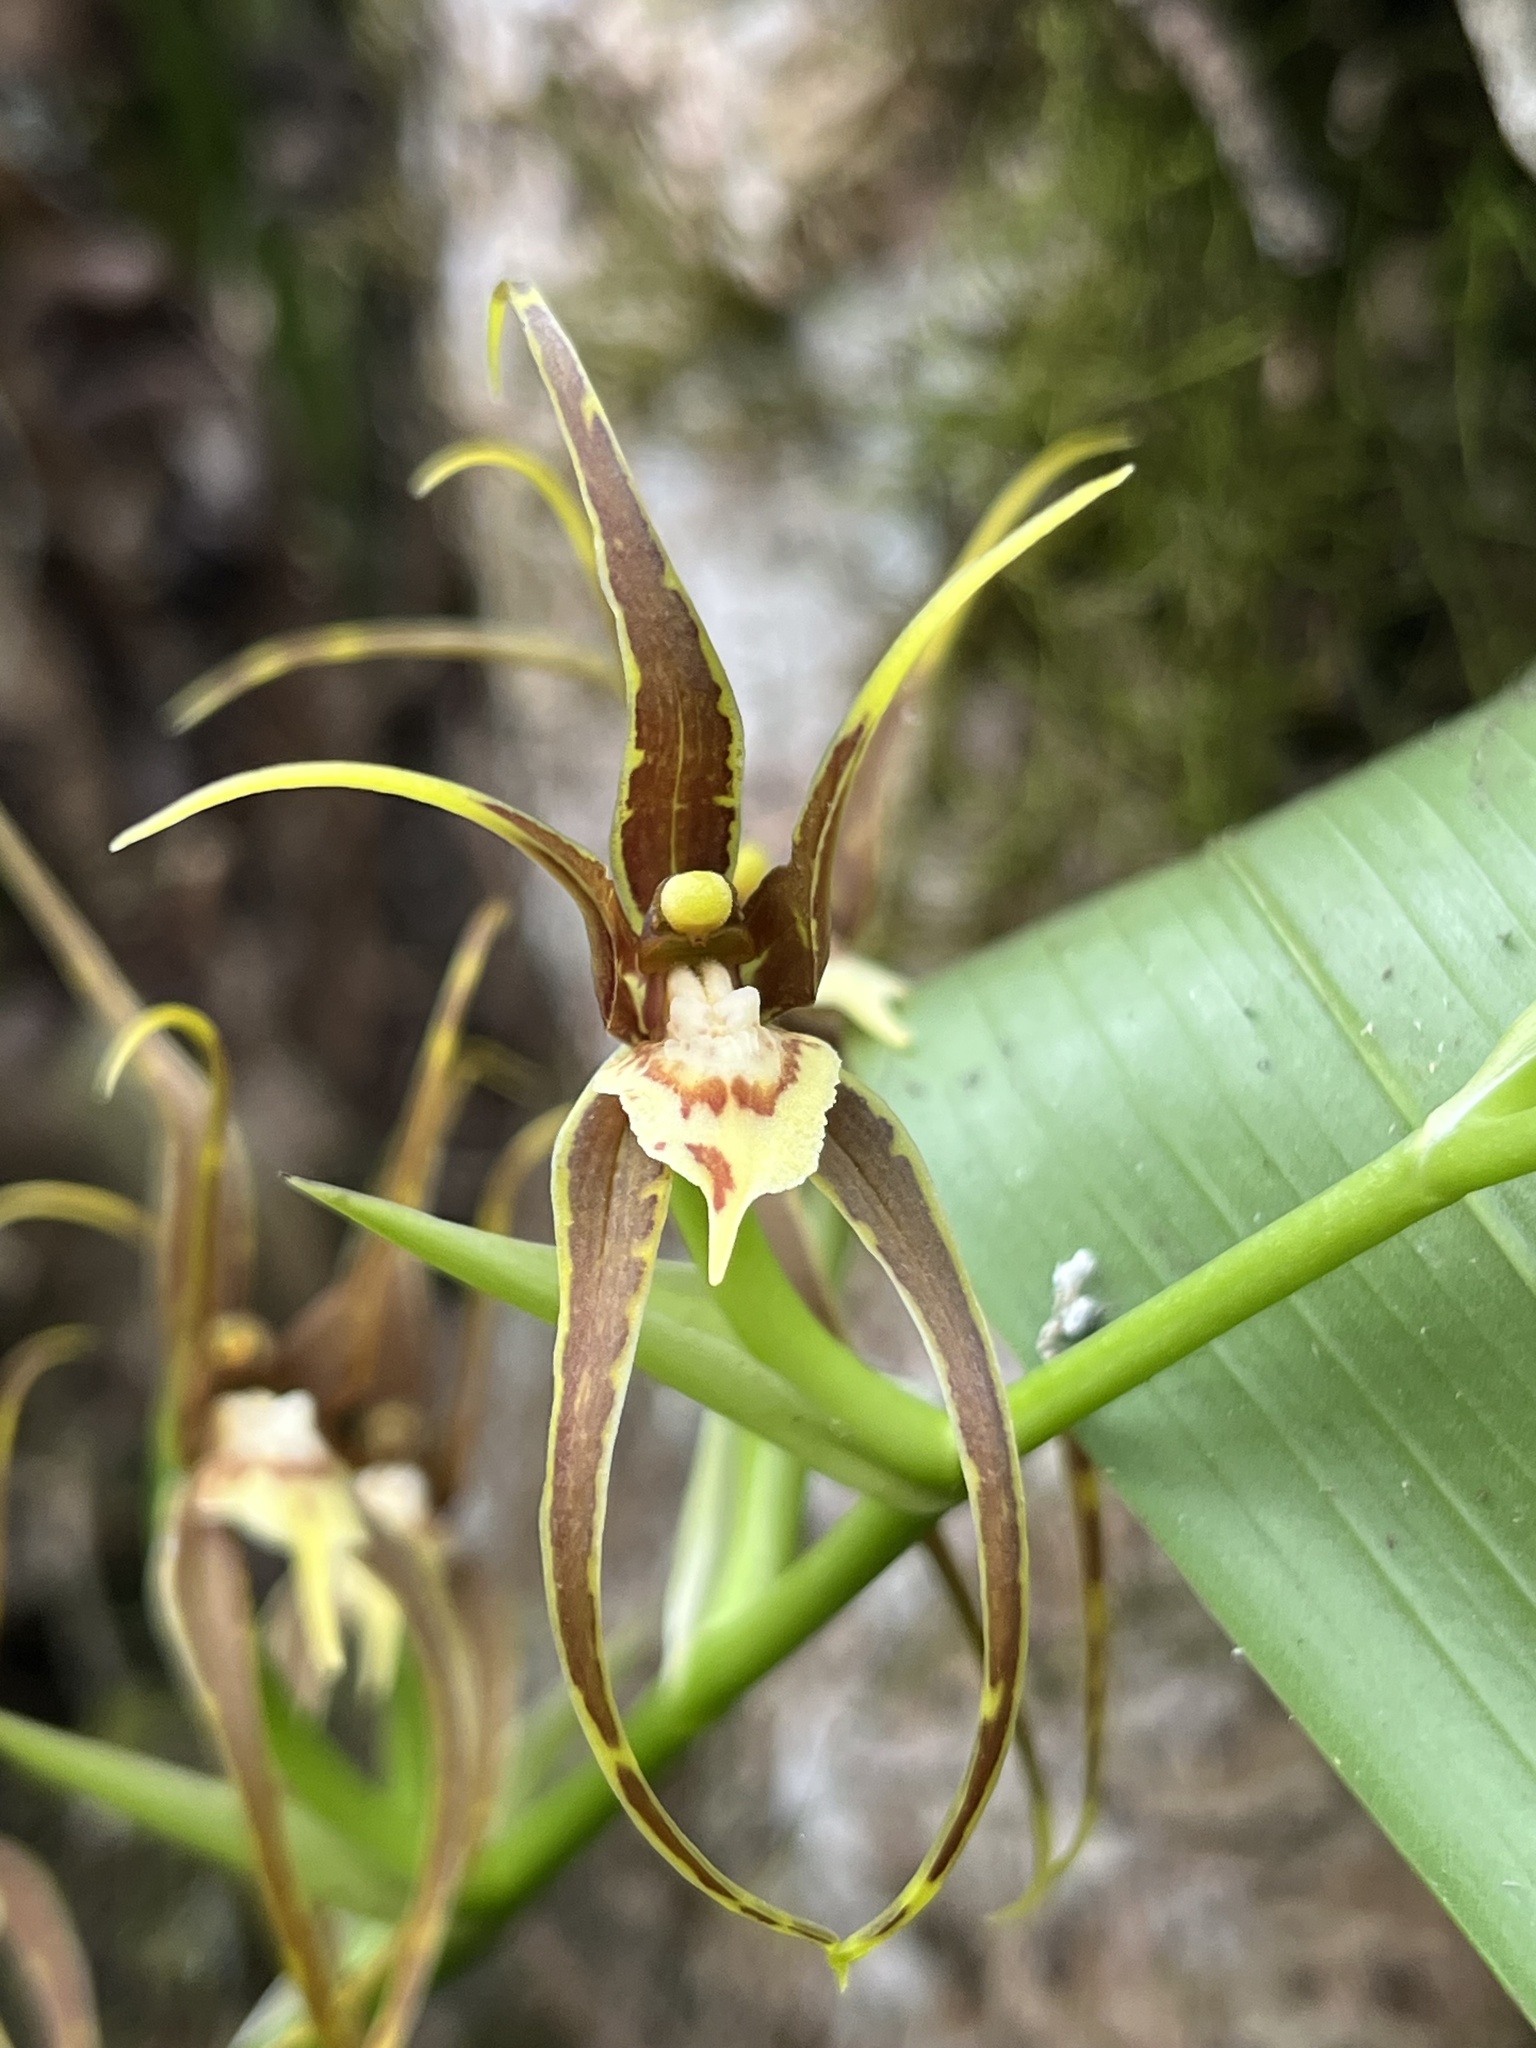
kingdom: Plantae
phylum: Tracheophyta
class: Liliopsida
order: Asparagales
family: Orchidaceae
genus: Brassia
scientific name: Brassia keiliana
